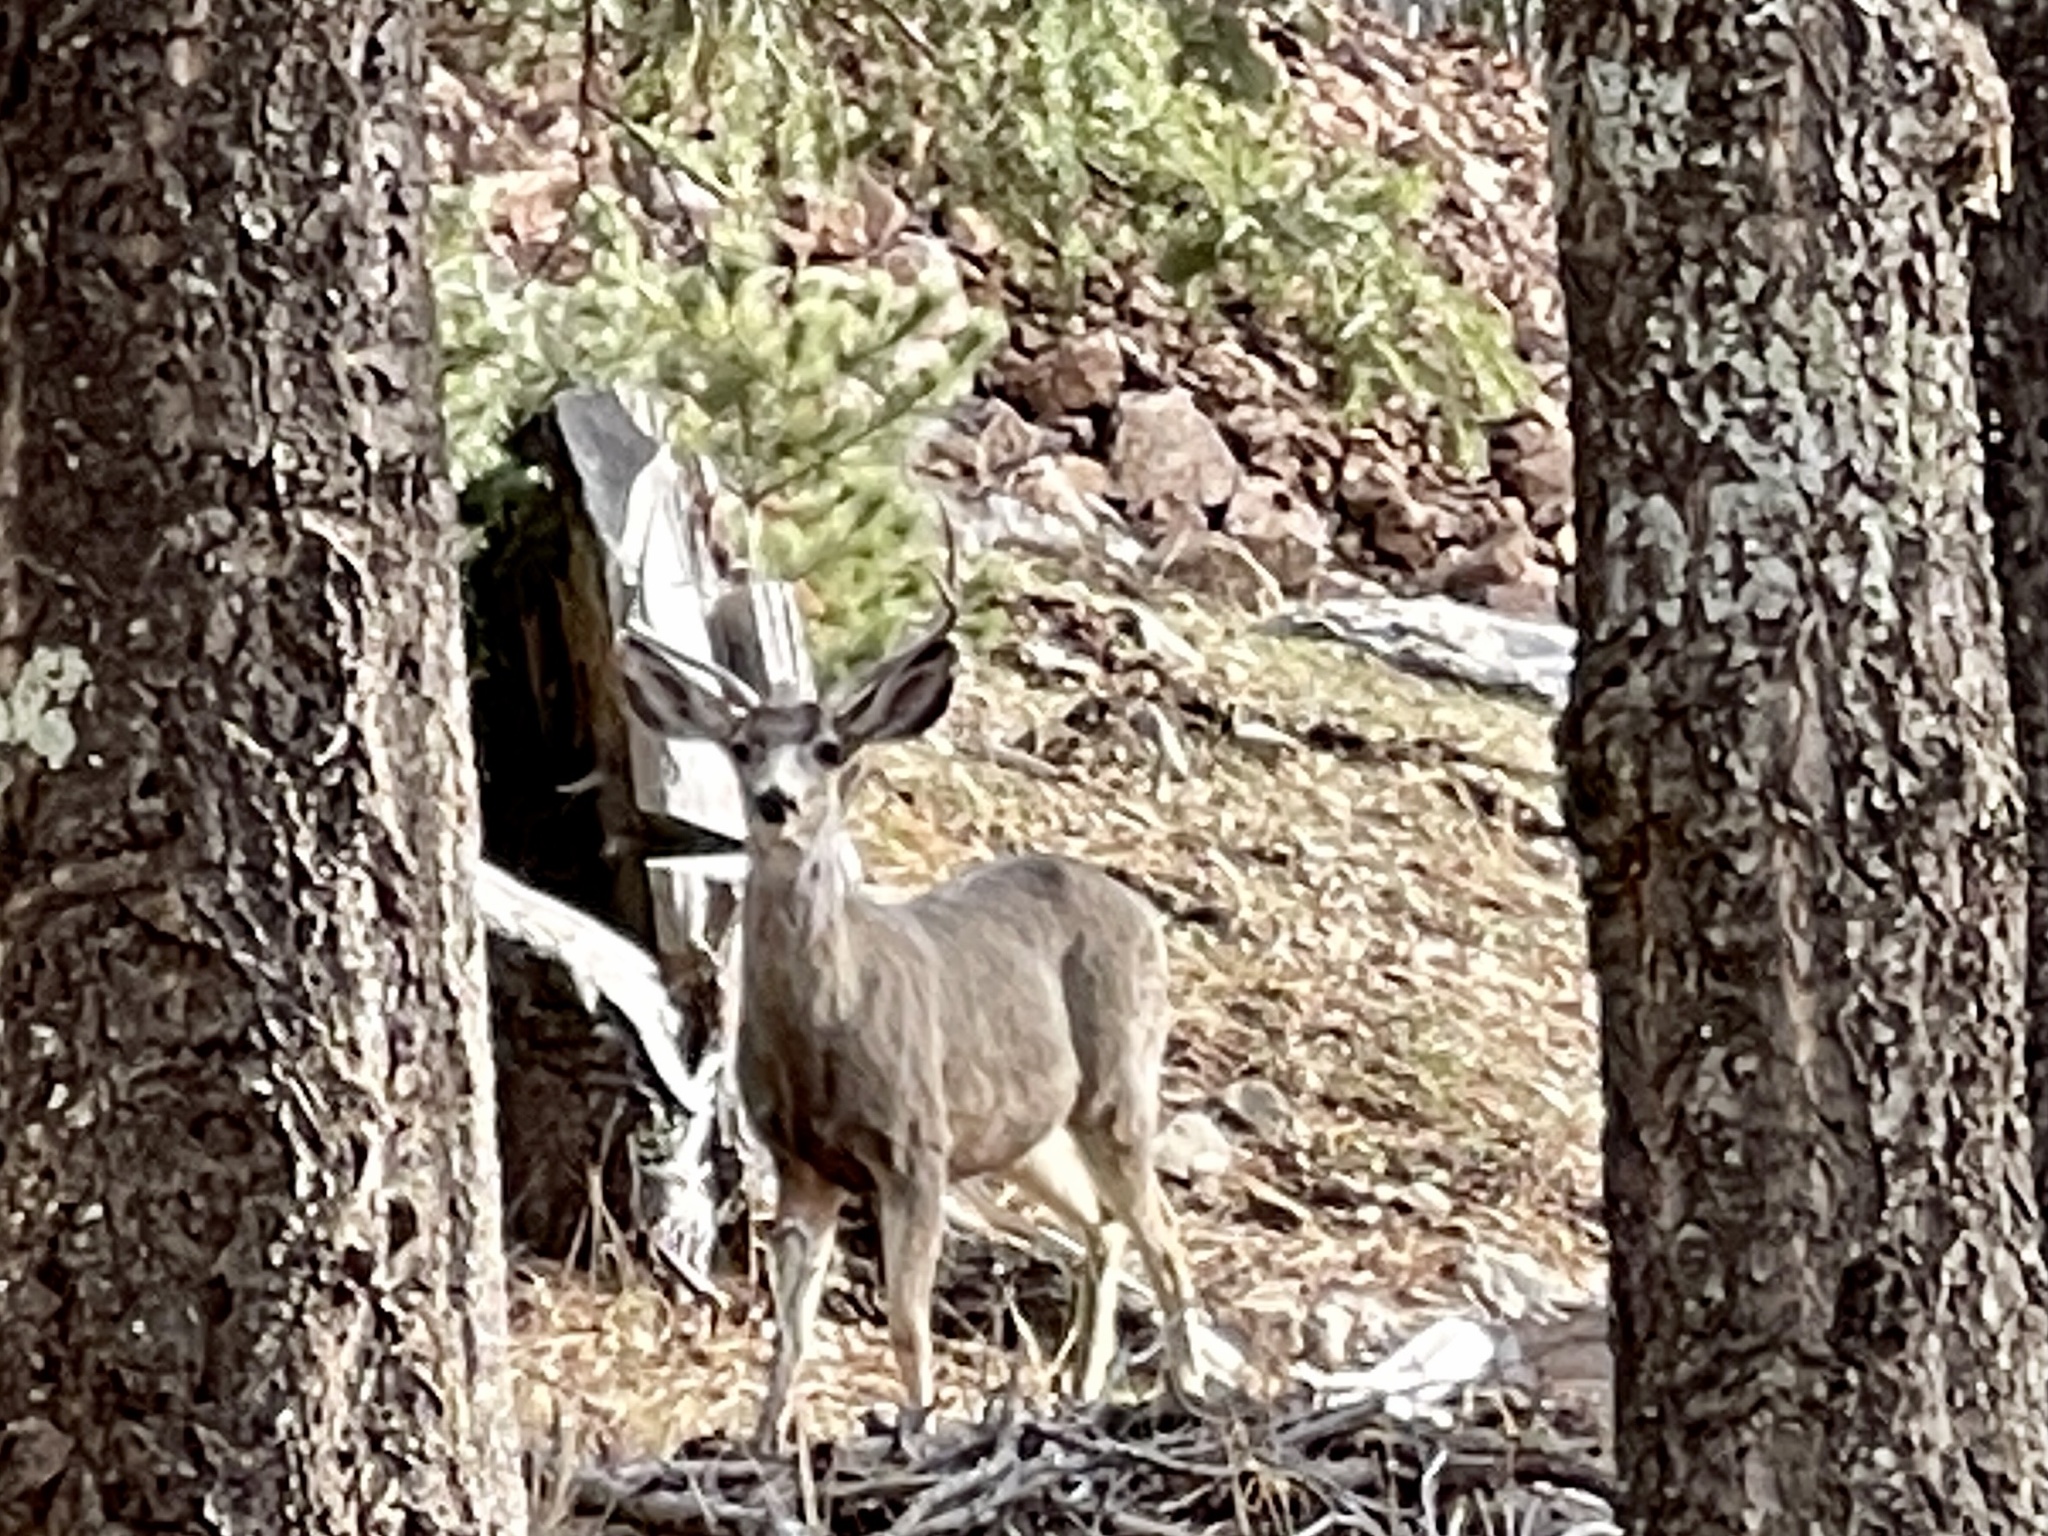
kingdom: Animalia
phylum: Chordata
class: Mammalia
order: Artiodactyla
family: Cervidae
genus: Odocoileus
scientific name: Odocoileus hemionus
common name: Mule deer
